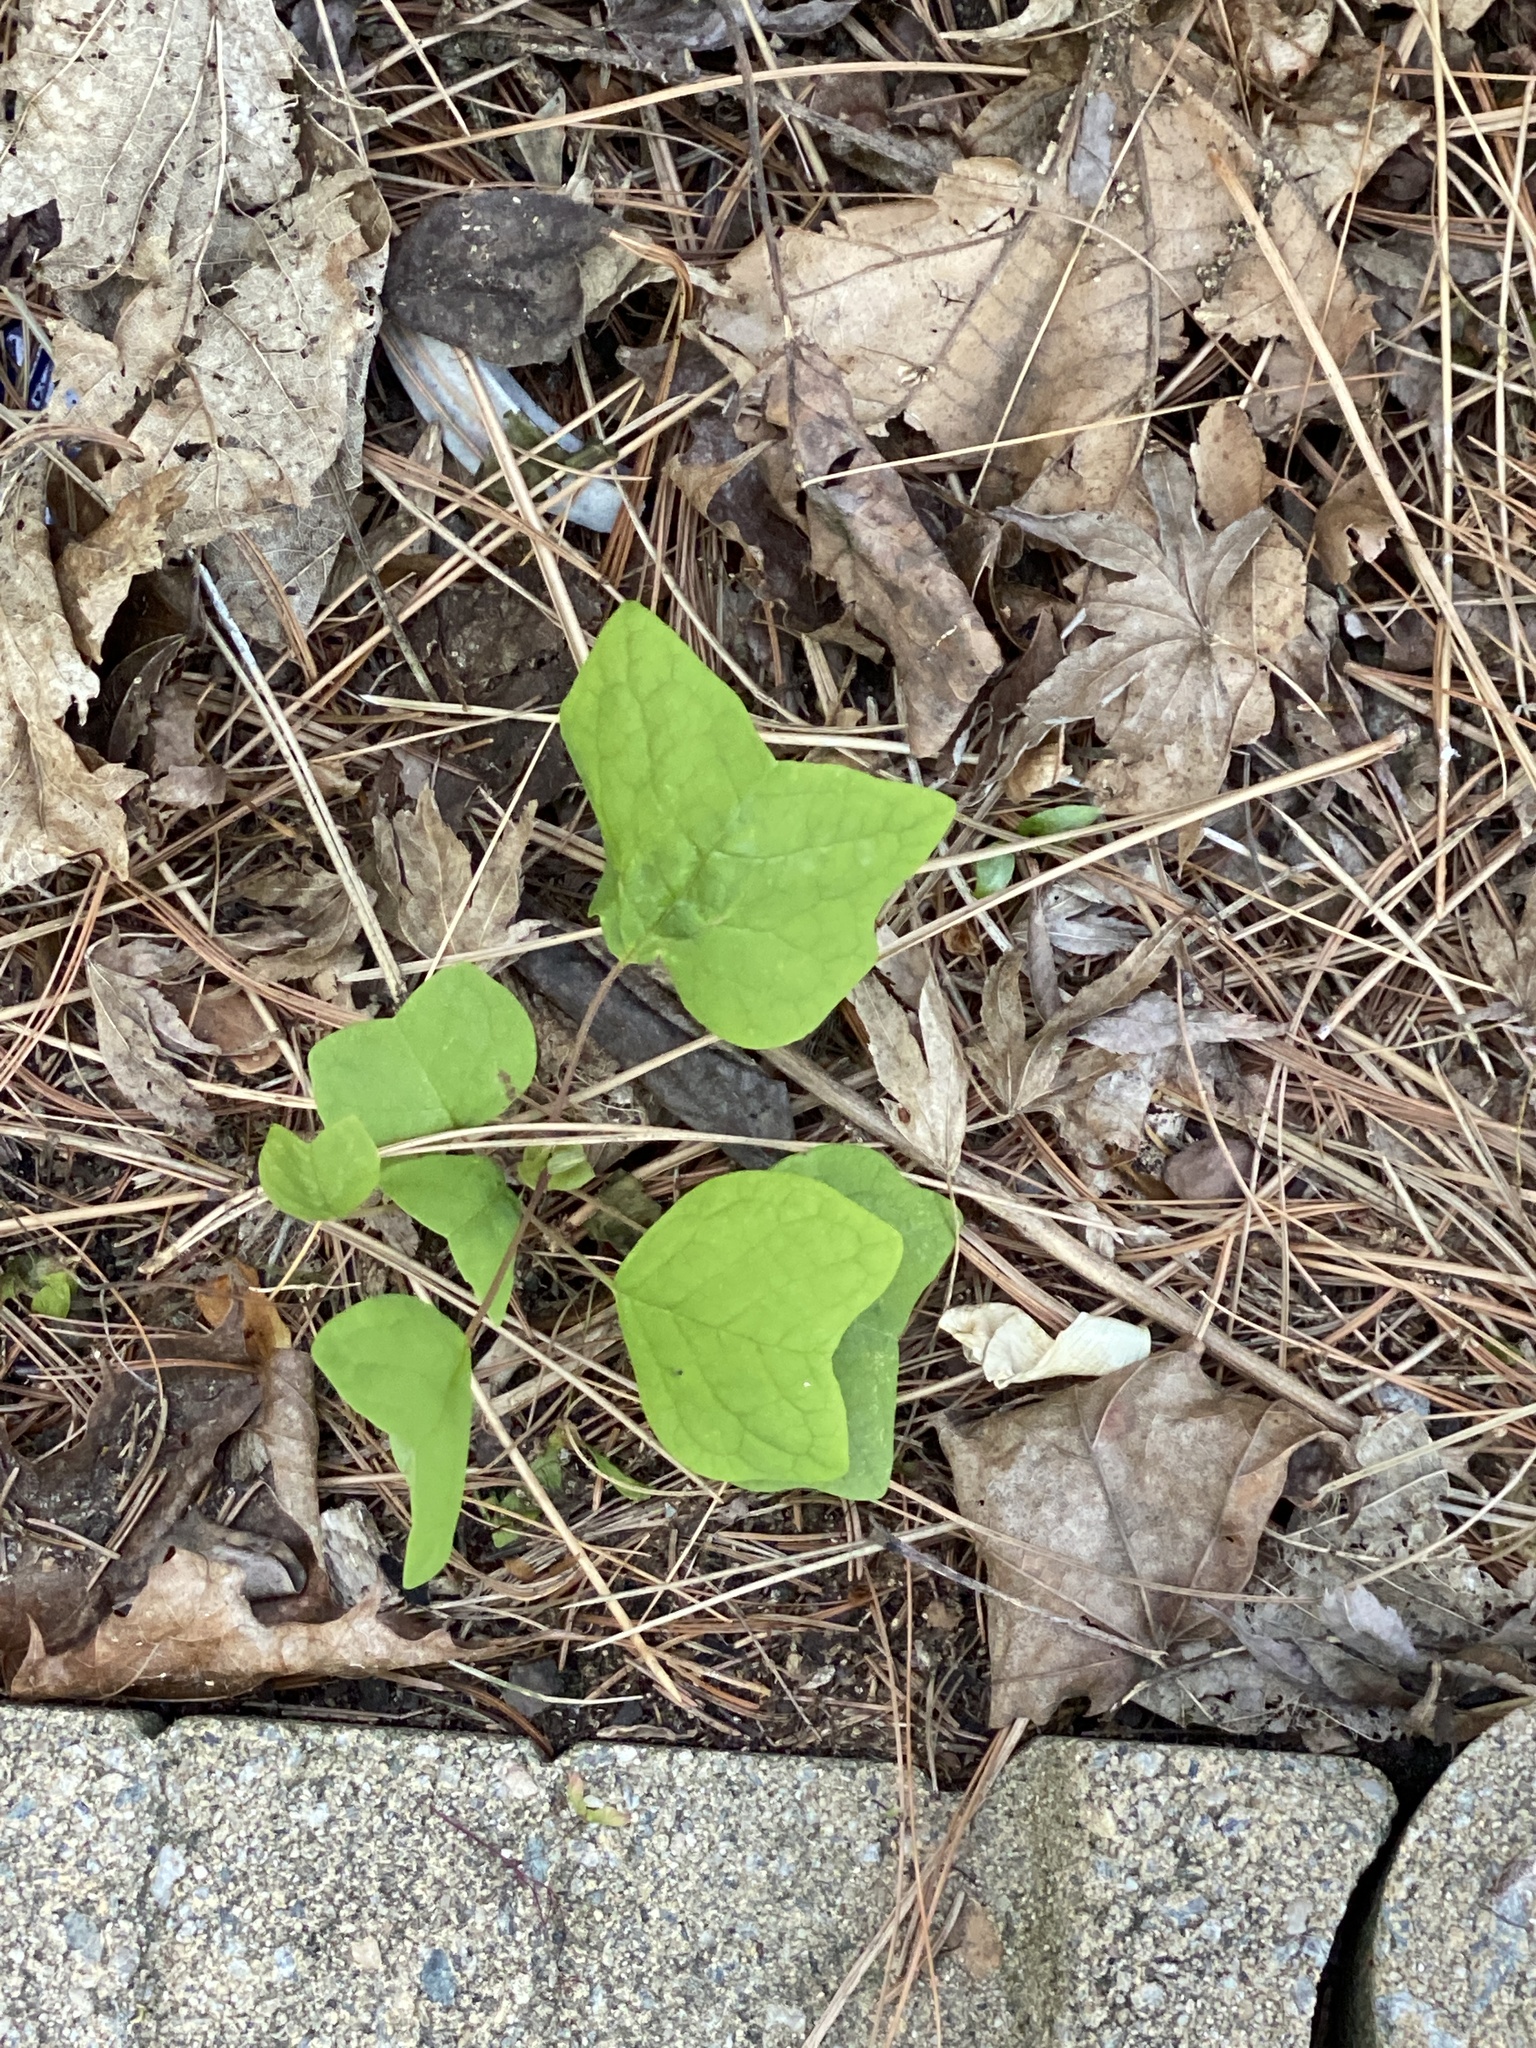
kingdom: Plantae
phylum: Tracheophyta
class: Magnoliopsida
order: Magnoliales
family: Magnoliaceae
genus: Liriodendron
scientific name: Liriodendron tulipifera
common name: Tulip tree
